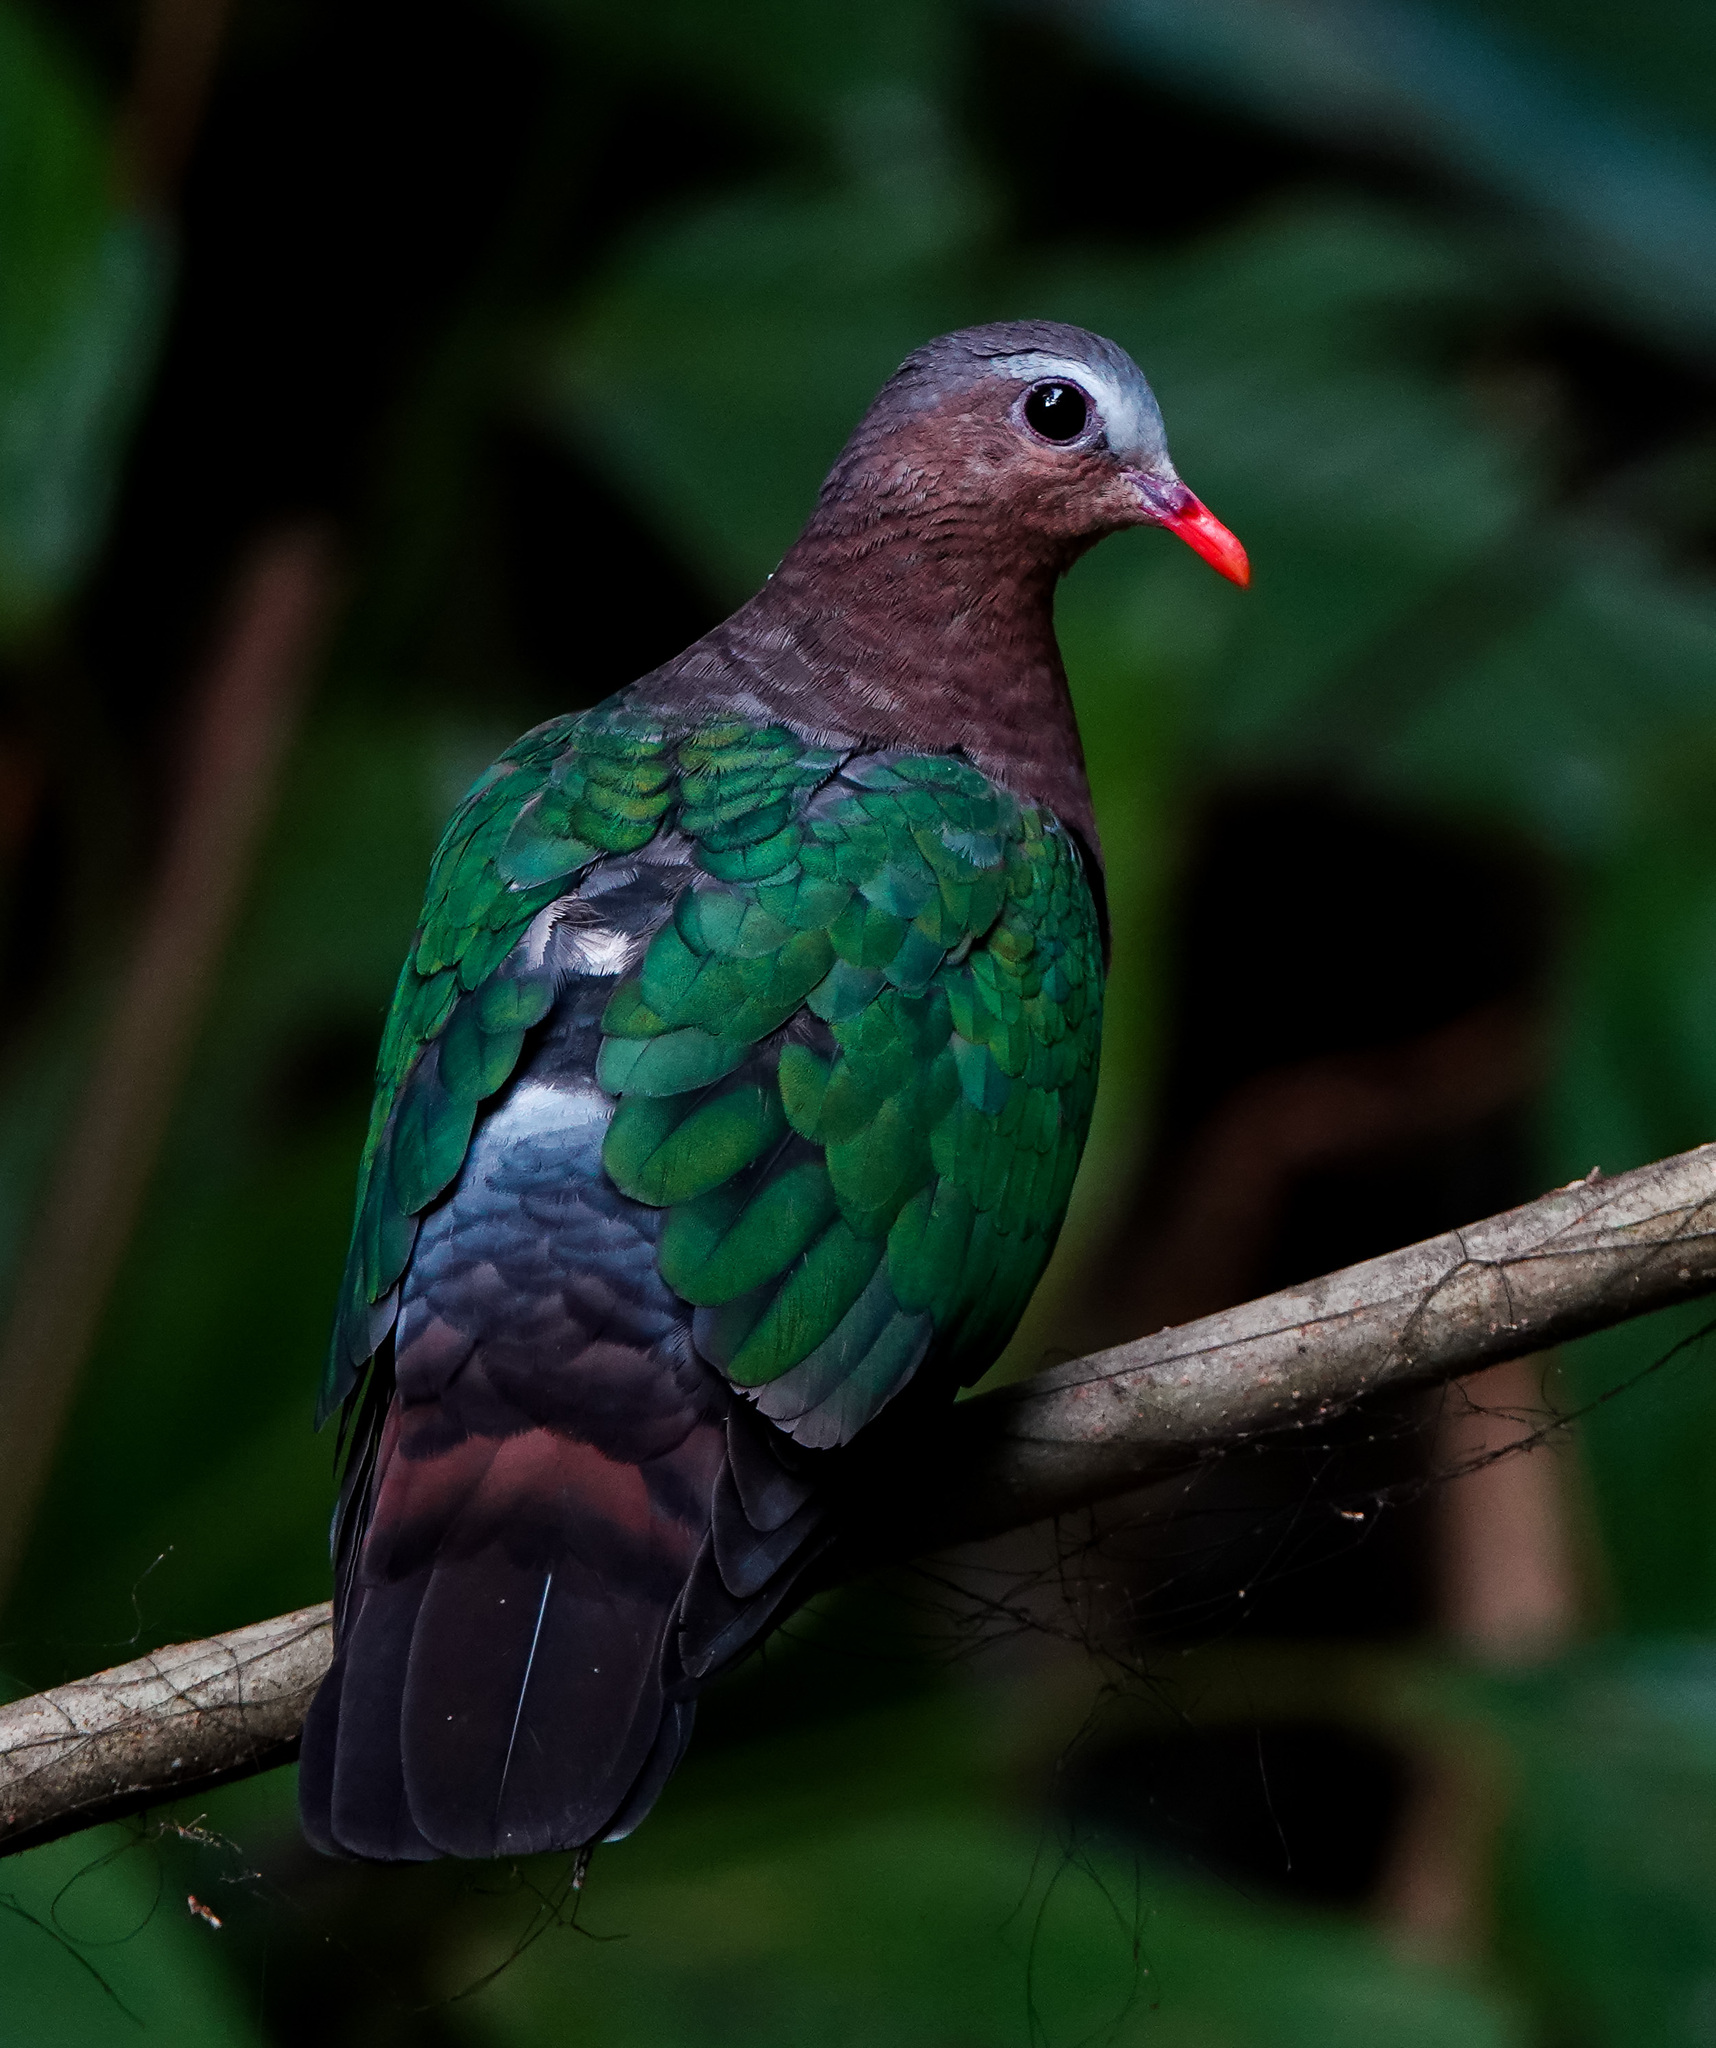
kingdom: Animalia
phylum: Chordata
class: Aves
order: Columbiformes
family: Columbidae
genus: Chalcophaps
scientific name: Chalcophaps indica
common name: Common emerald dove
